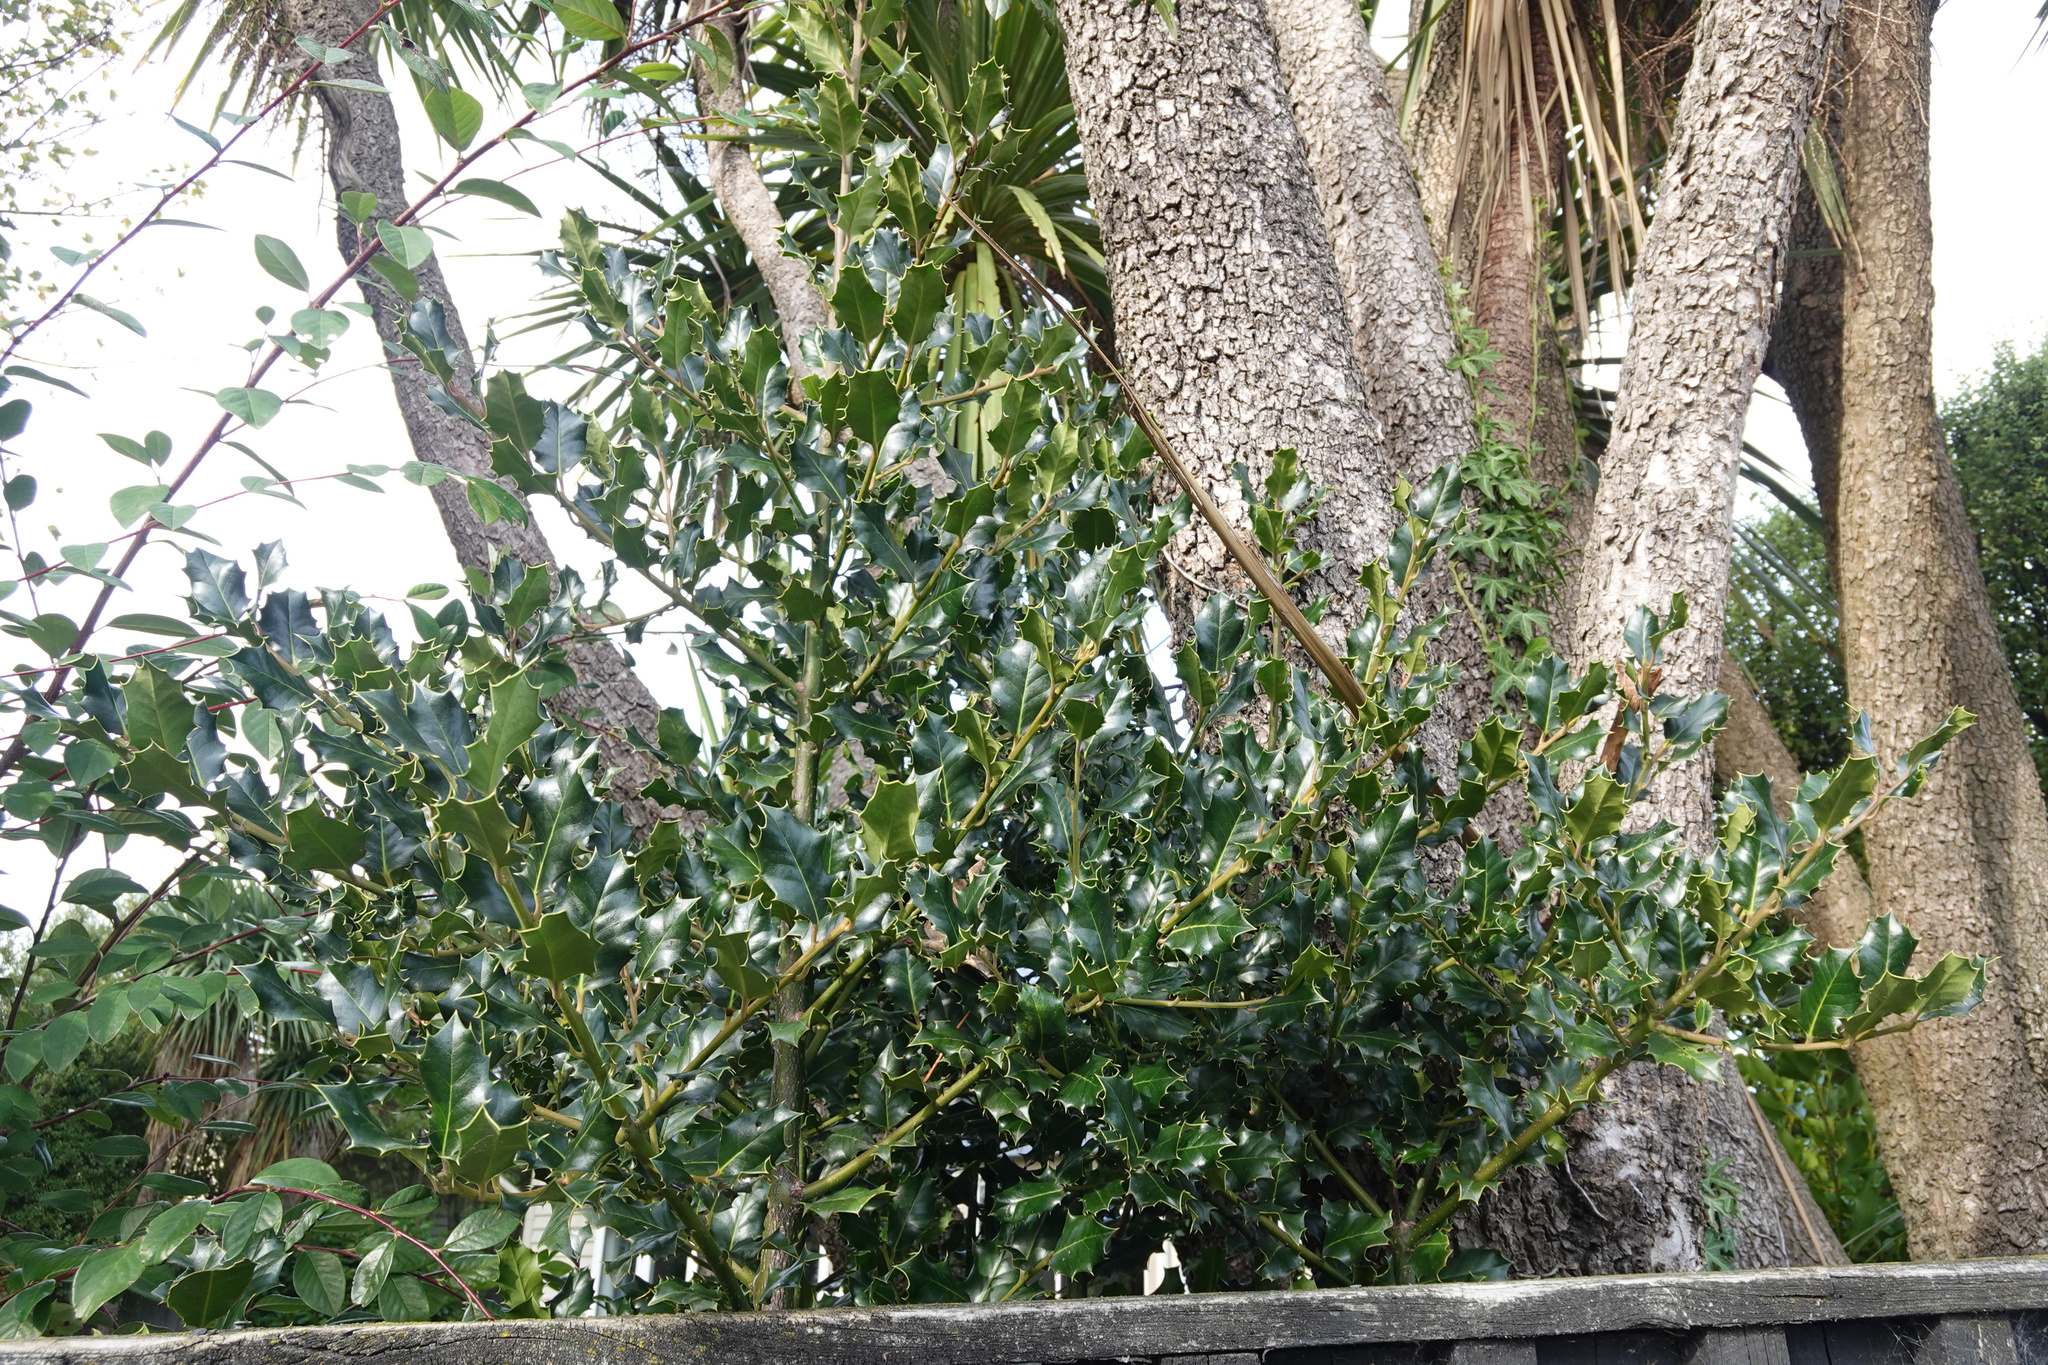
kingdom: Plantae
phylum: Tracheophyta
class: Magnoliopsida
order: Aquifoliales
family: Aquifoliaceae
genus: Ilex
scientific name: Ilex aquifolium
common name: English holly
